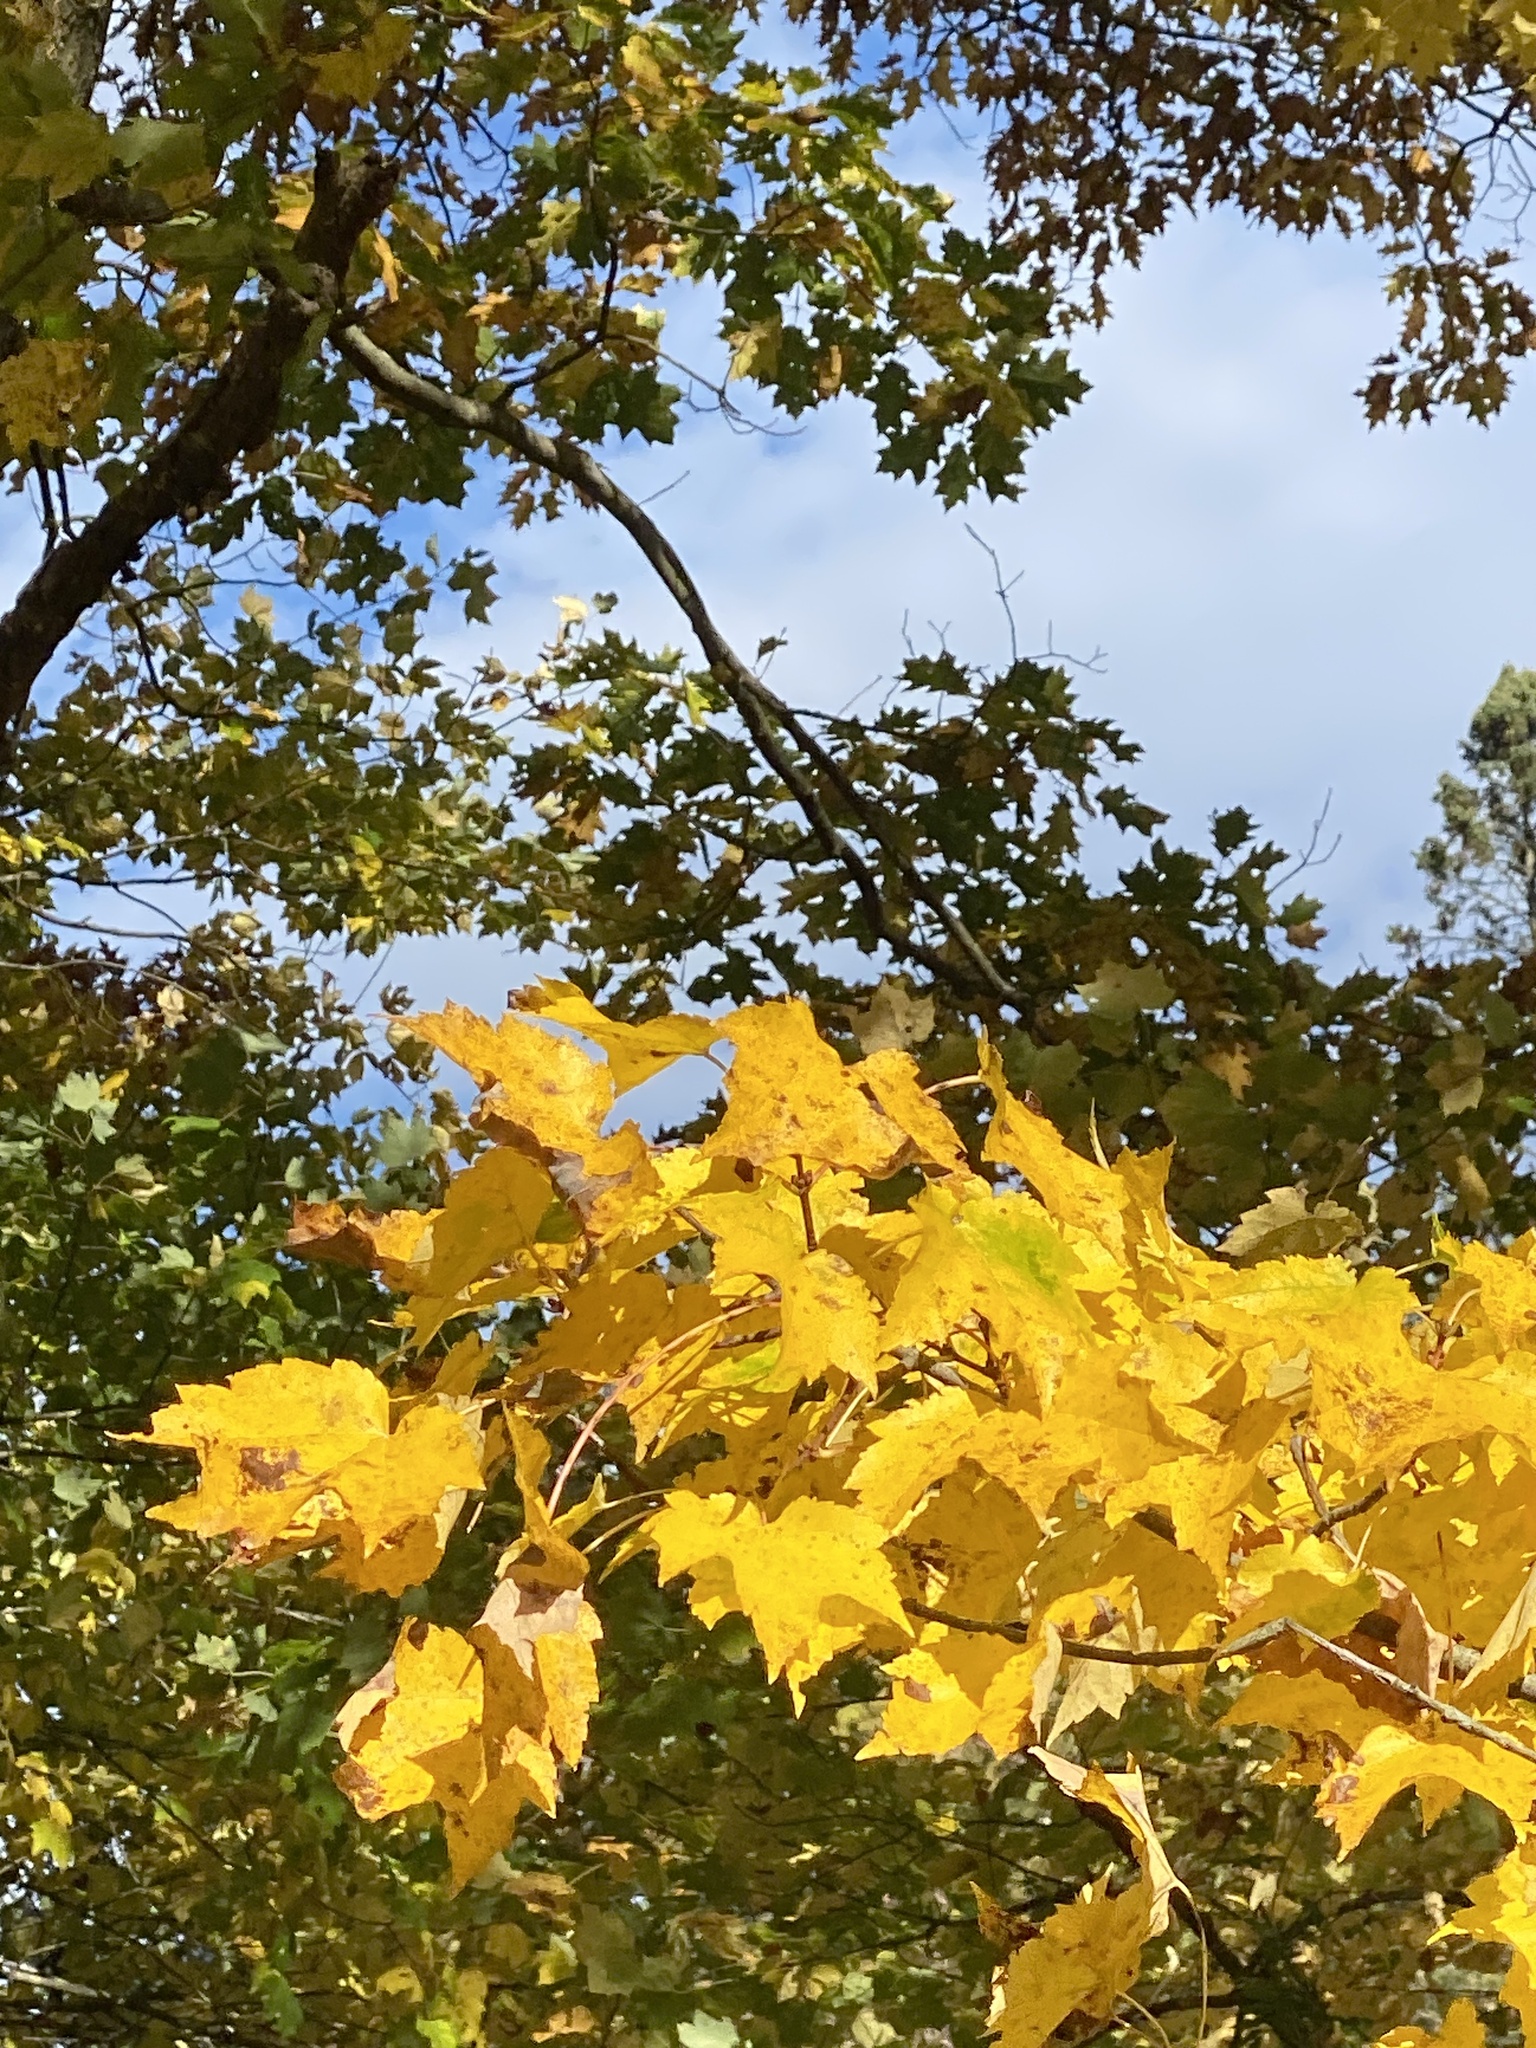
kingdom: Plantae
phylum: Tracheophyta
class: Magnoliopsida
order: Sapindales
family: Sapindaceae
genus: Acer
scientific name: Acer rubrum
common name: Red maple
